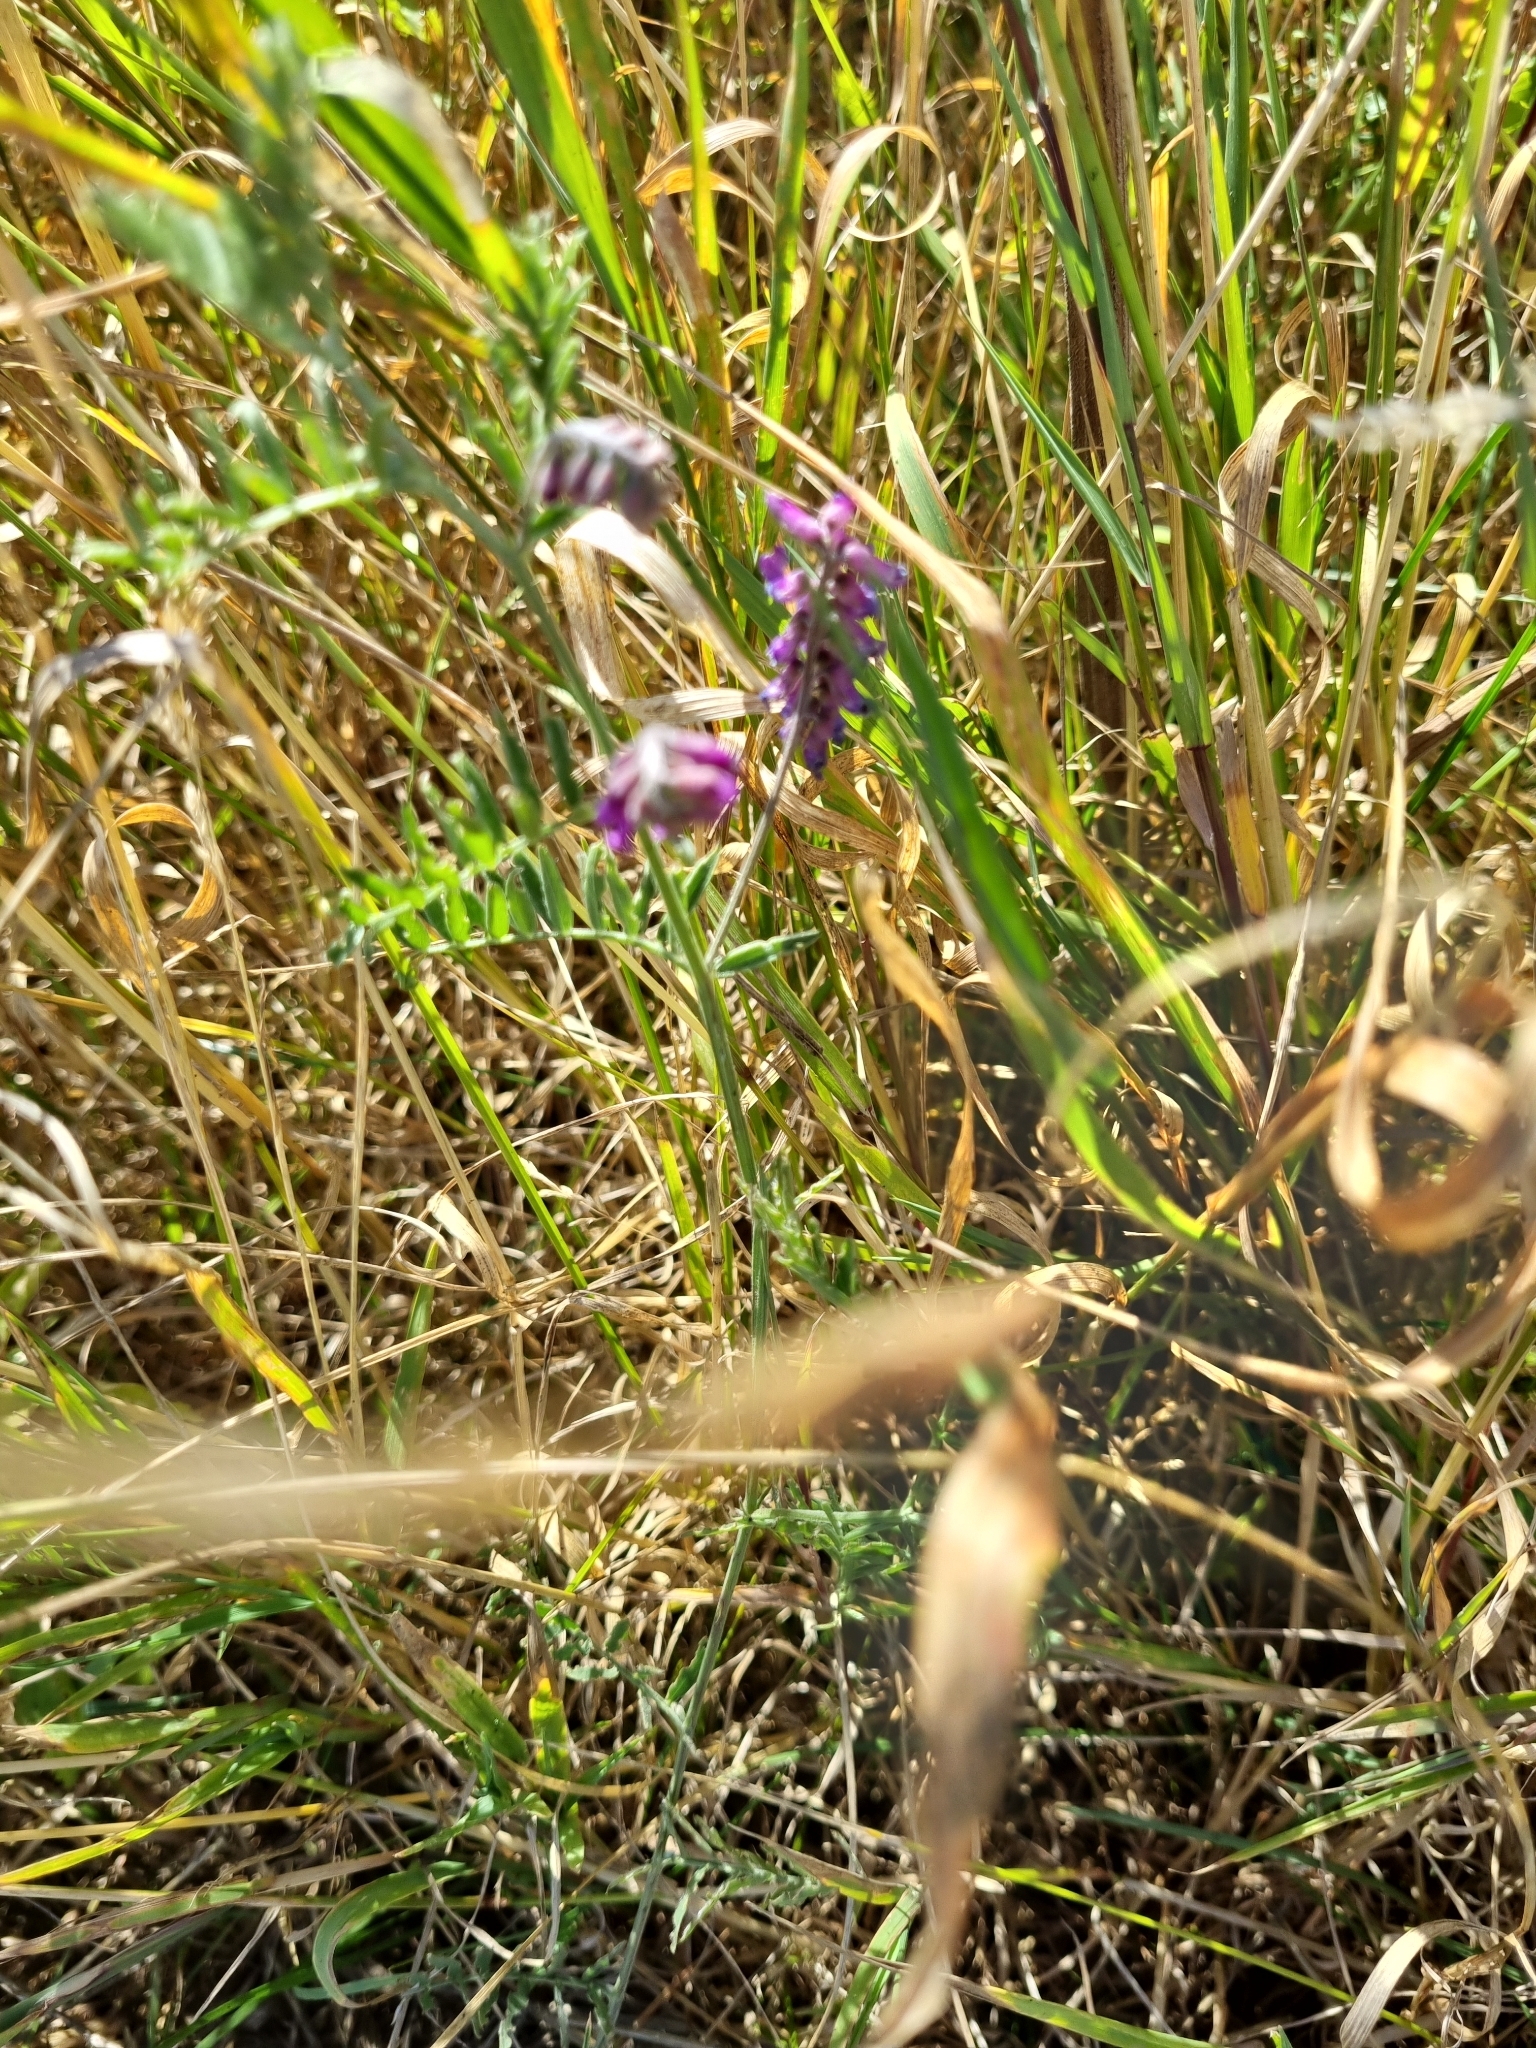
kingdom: Plantae
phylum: Tracheophyta
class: Magnoliopsida
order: Fabales
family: Fabaceae
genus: Vicia
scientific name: Vicia cracca
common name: Bird vetch
